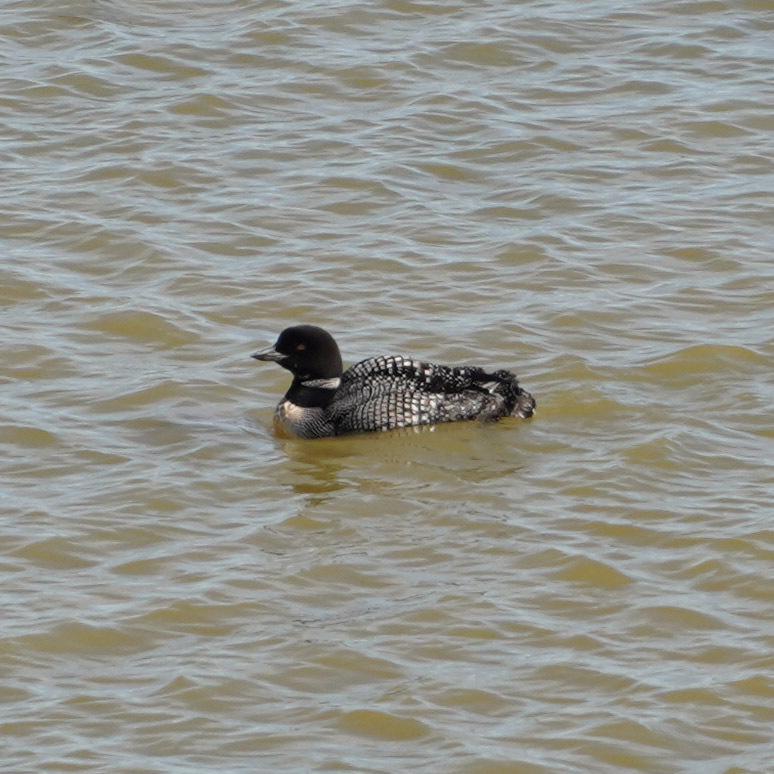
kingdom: Animalia
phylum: Chordata
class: Aves
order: Gaviiformes
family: Gaviidae
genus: Gavia
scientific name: Gavia immer
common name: Common loon
